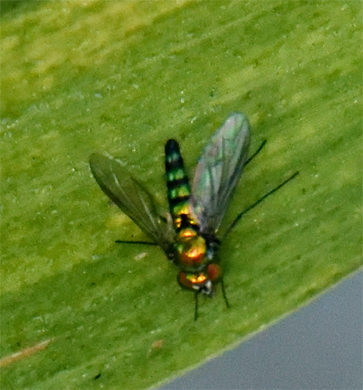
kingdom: Animalia
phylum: Arthropoda
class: Insecta
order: Diptera
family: Dolichopodidae
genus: Condylostylus
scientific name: Condylostylus longicornis
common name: Long-legged fly
